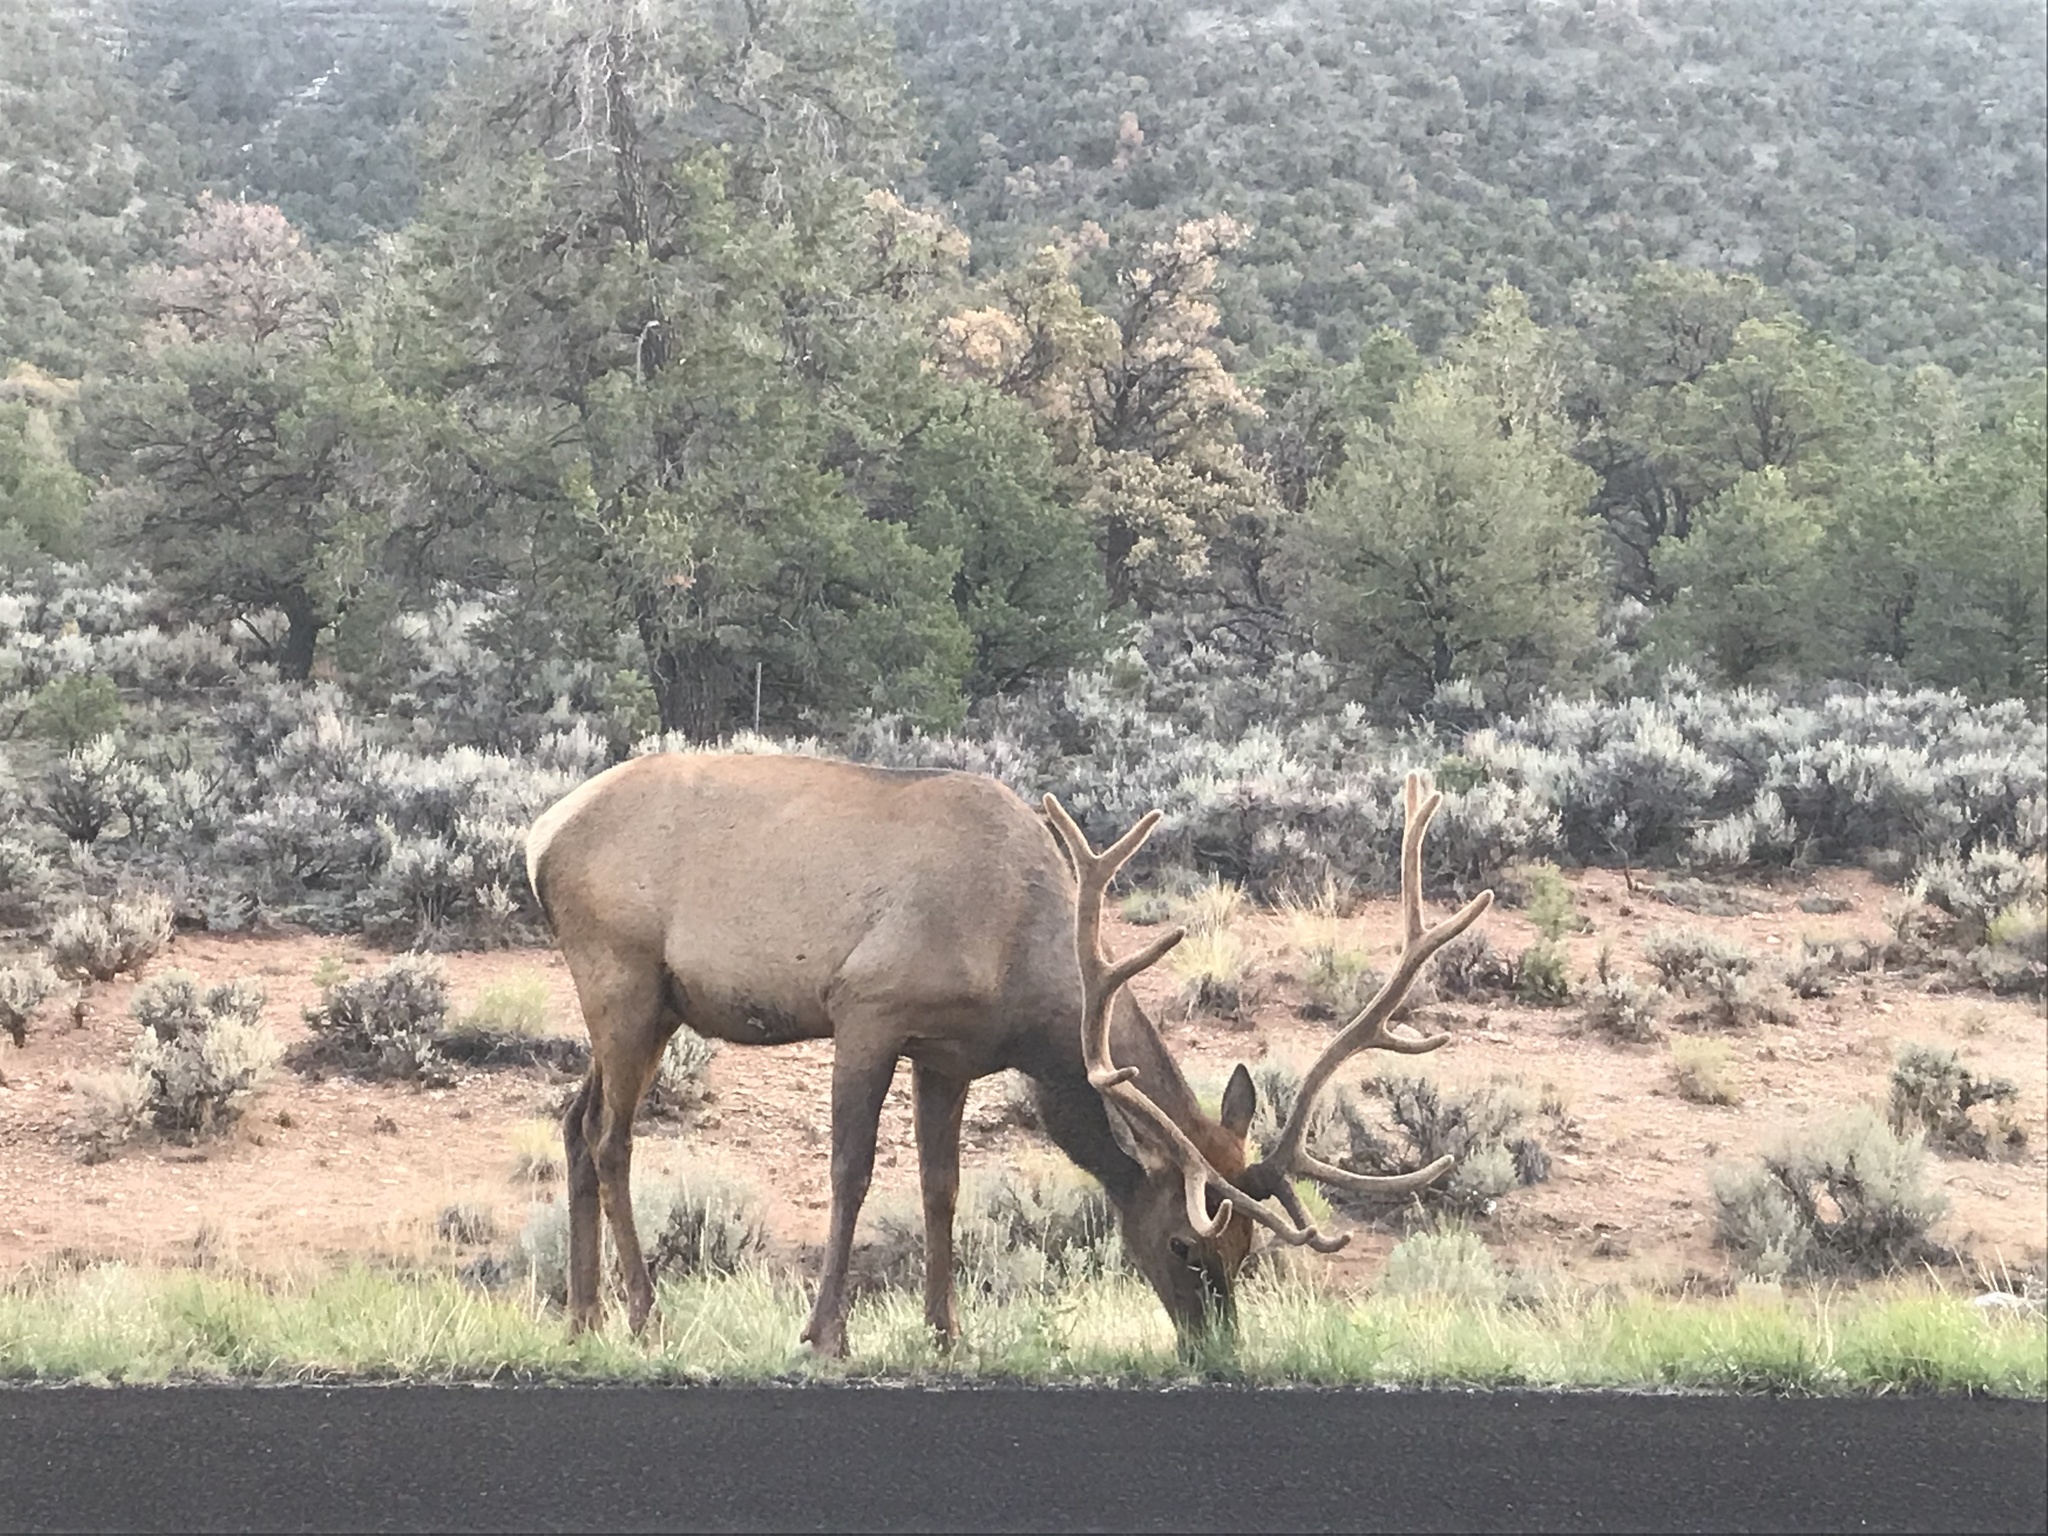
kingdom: Animalia
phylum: Chordata
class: Mammalia
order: Artiodactyla
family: Cervidae
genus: Cervus
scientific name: Cervus elaphus
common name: Red deer
